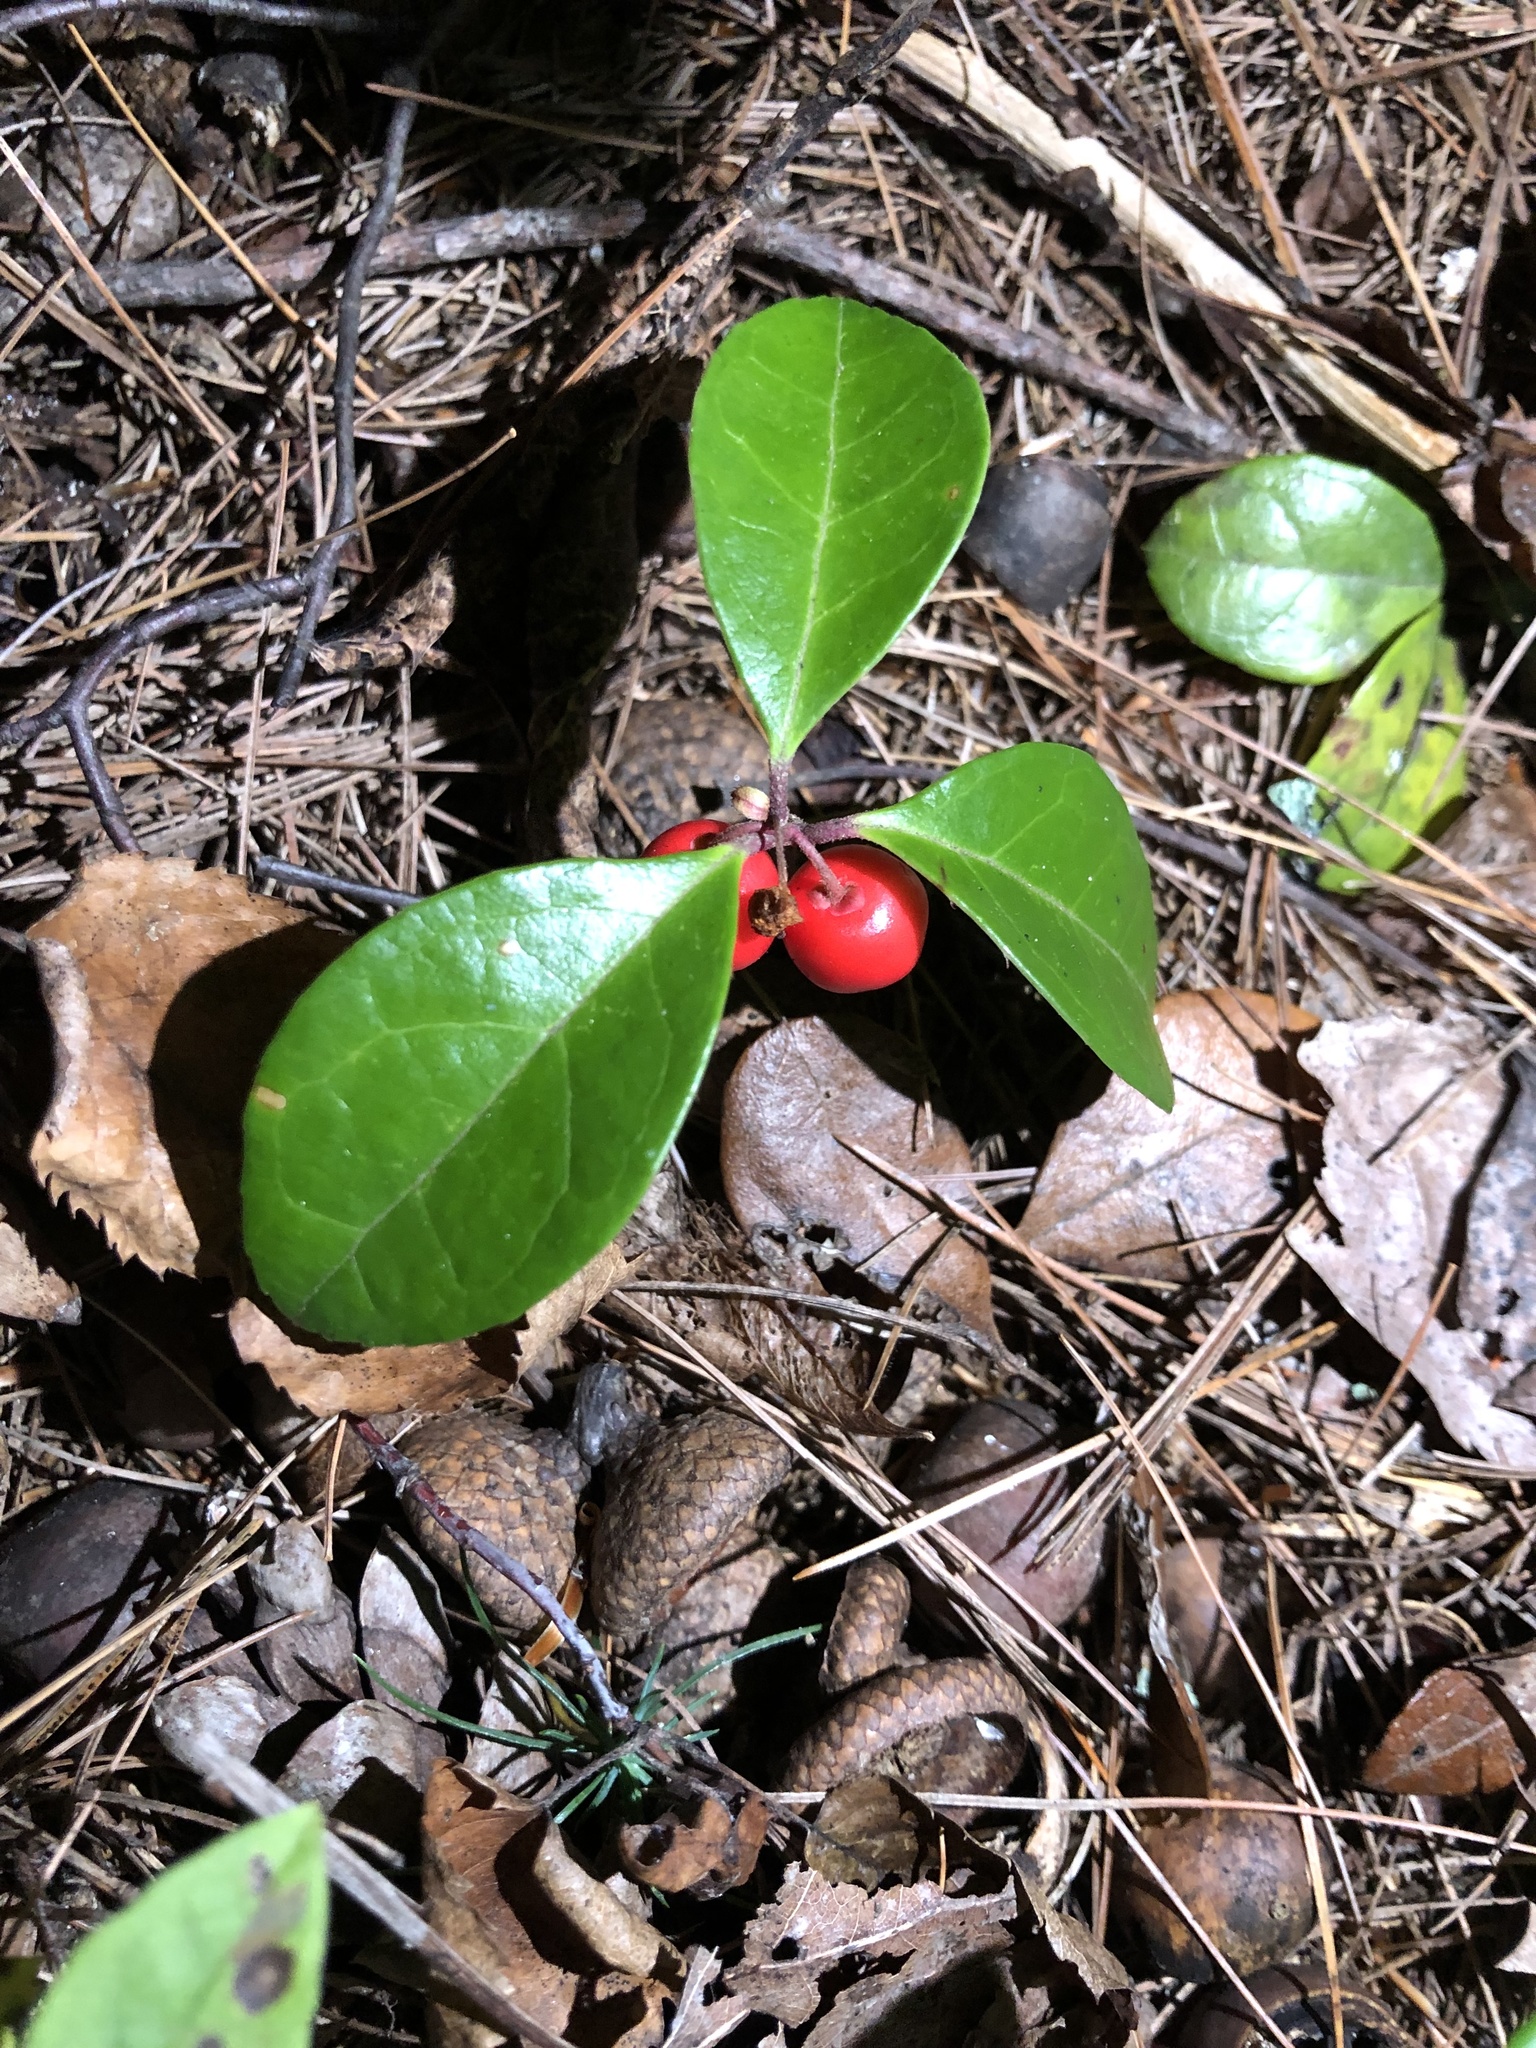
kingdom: Plantae
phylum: Tracheophyta
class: Magnoliopsida
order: Ericales
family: Ericaceae
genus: Gaultheria
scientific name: Gaultheria procumbens
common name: Checkerberry
